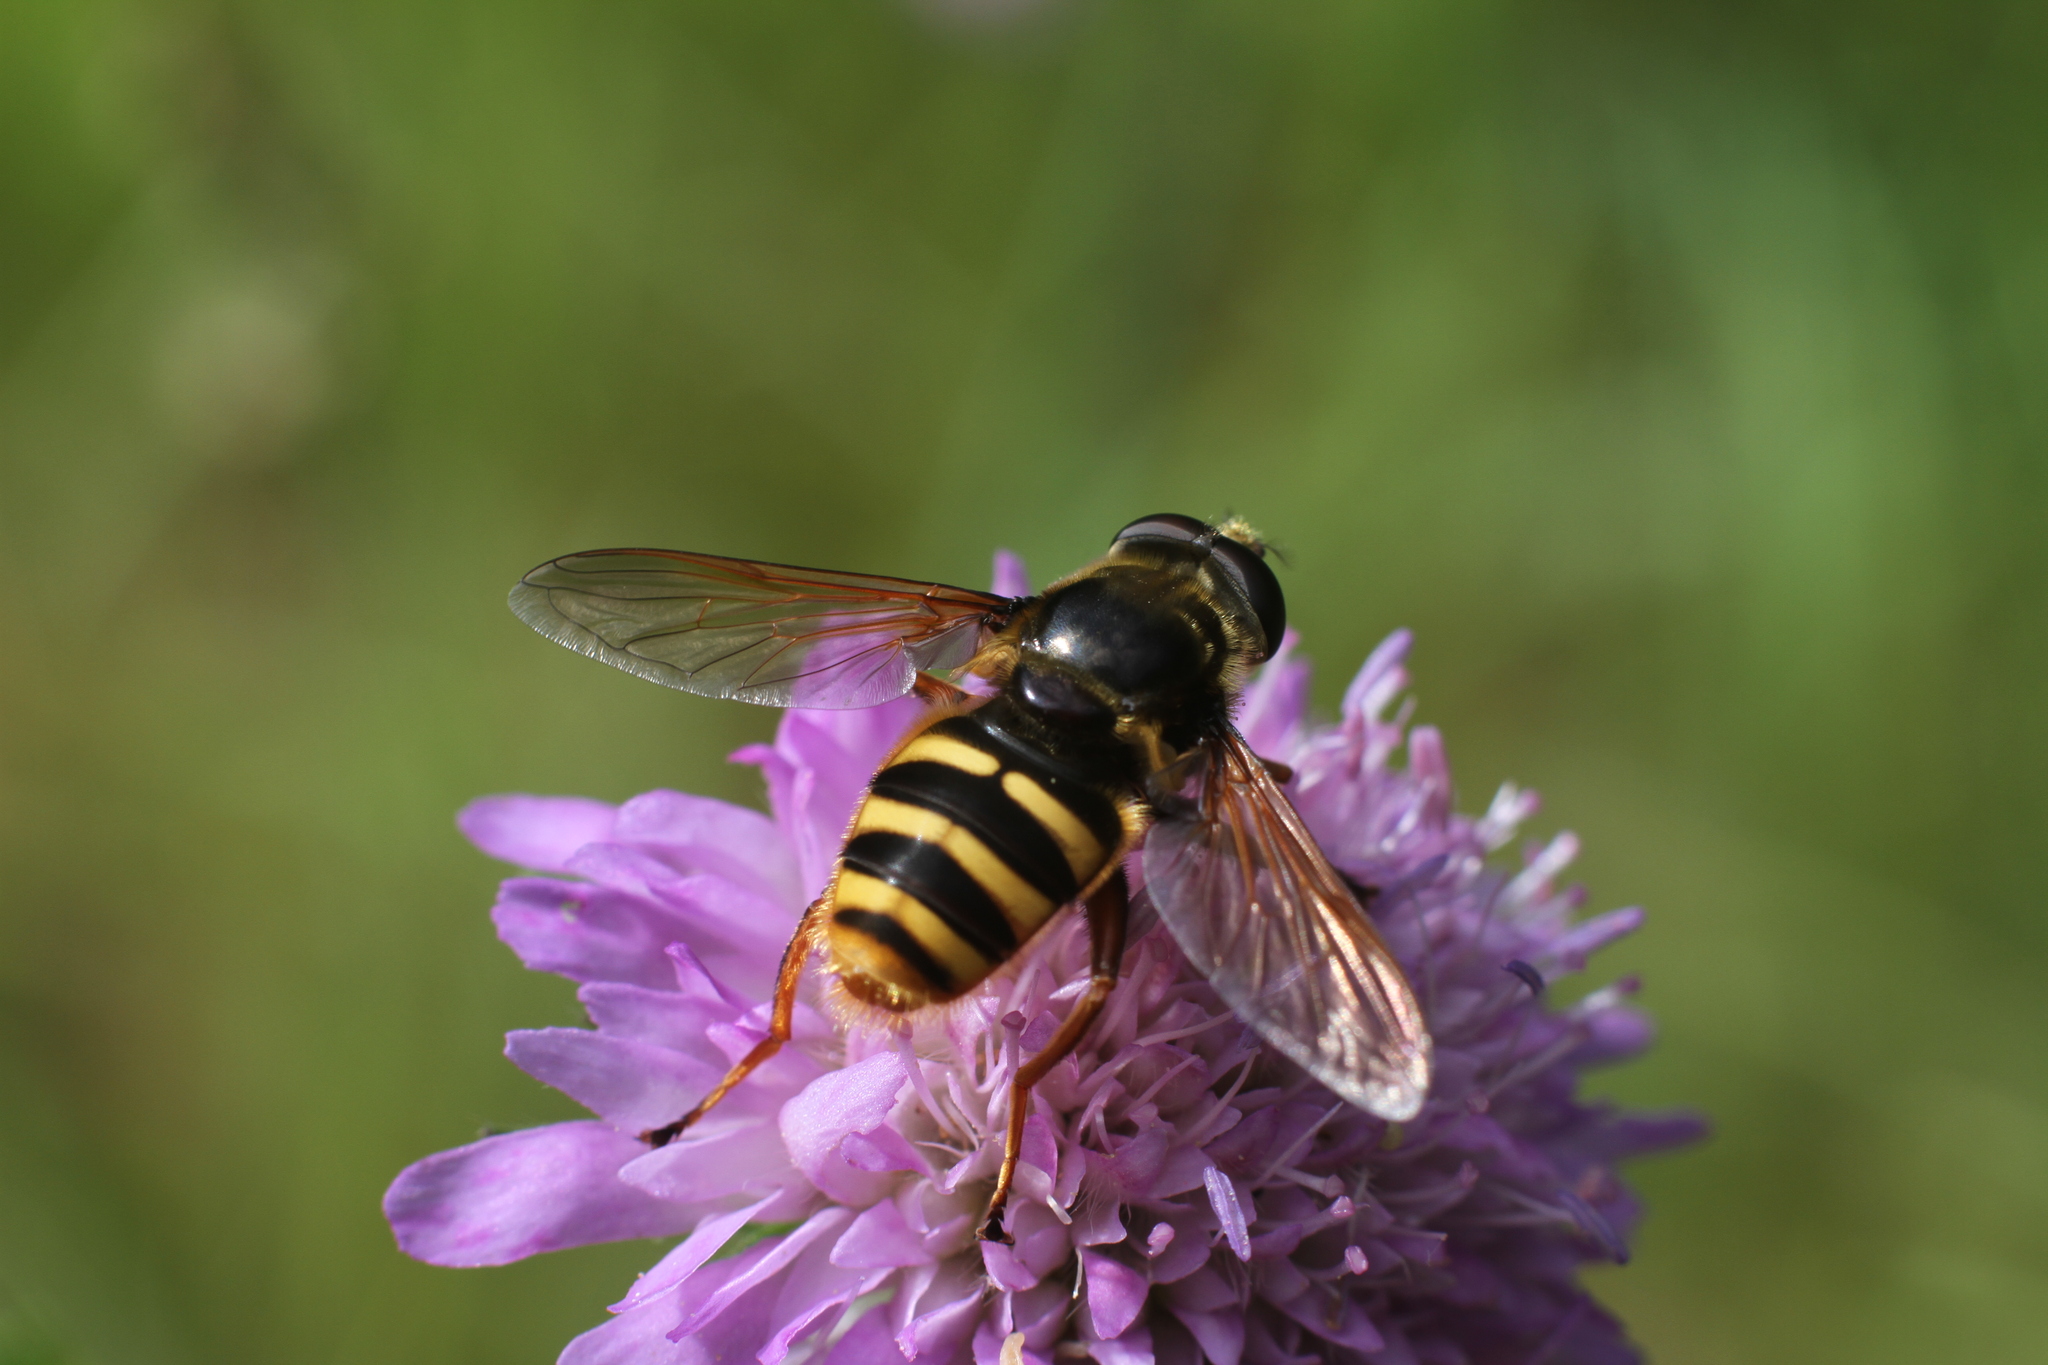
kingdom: Animalia
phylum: Arthropoda
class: Insecta
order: Diptera
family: Syrphidae
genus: Sericomyia
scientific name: Sericomyia silentis
